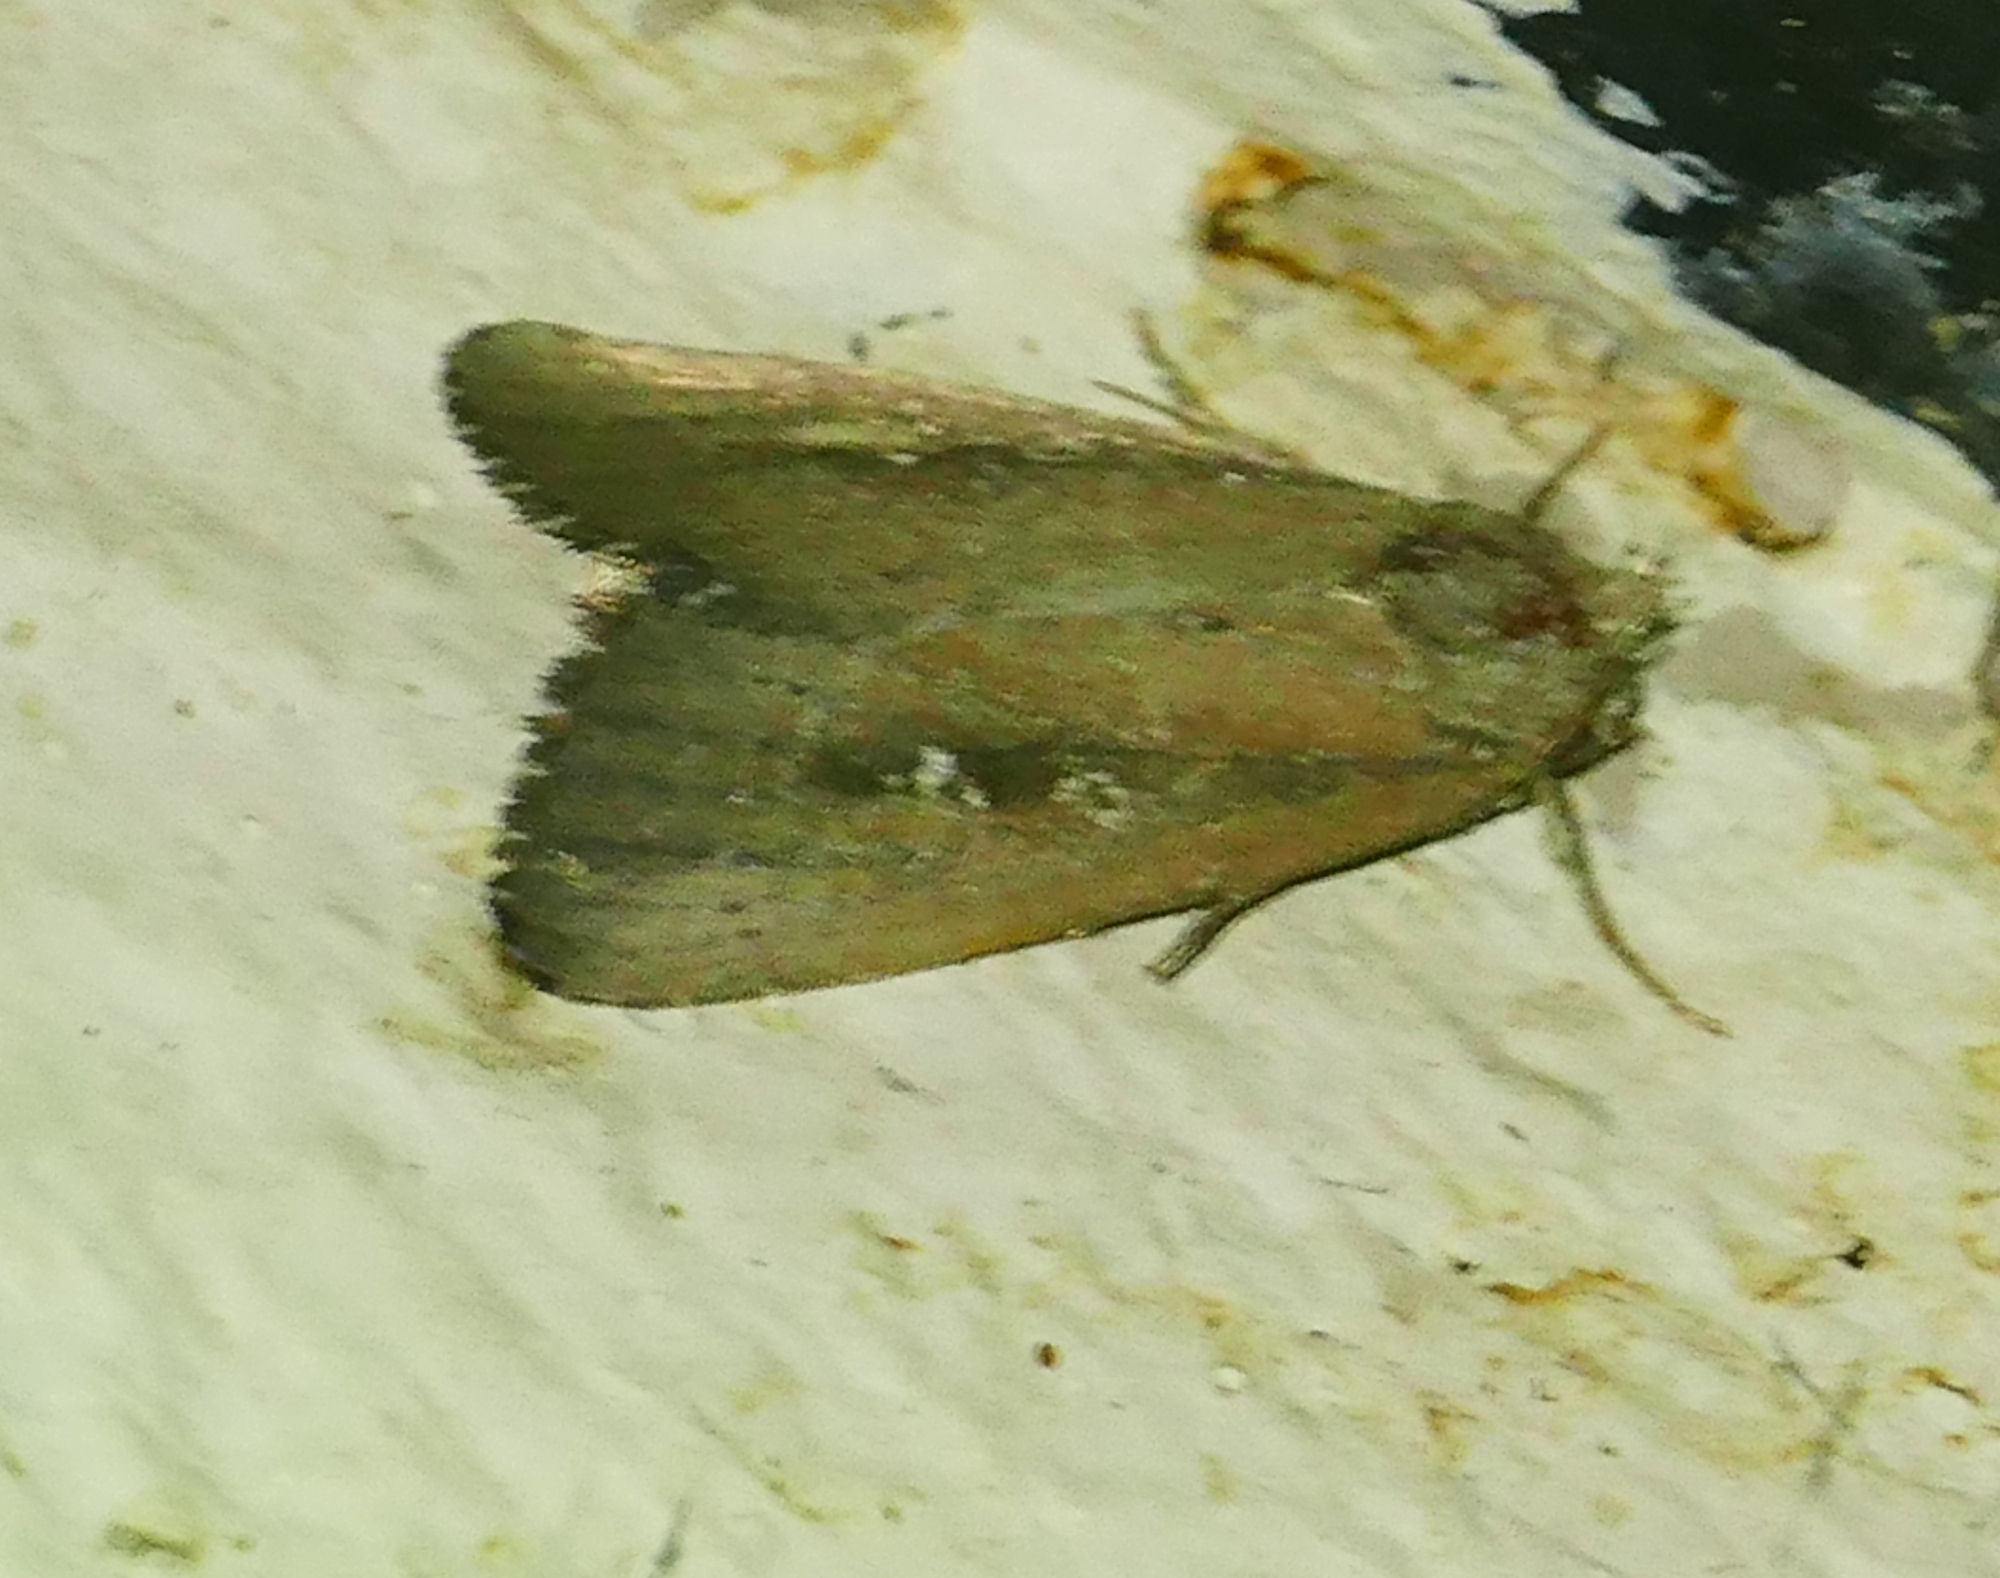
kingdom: Animalia
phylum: Arthropoda
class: Insecta
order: Lepidoptera
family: Noctuidae
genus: Condica
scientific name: Condica videns
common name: White-dotted groundling
